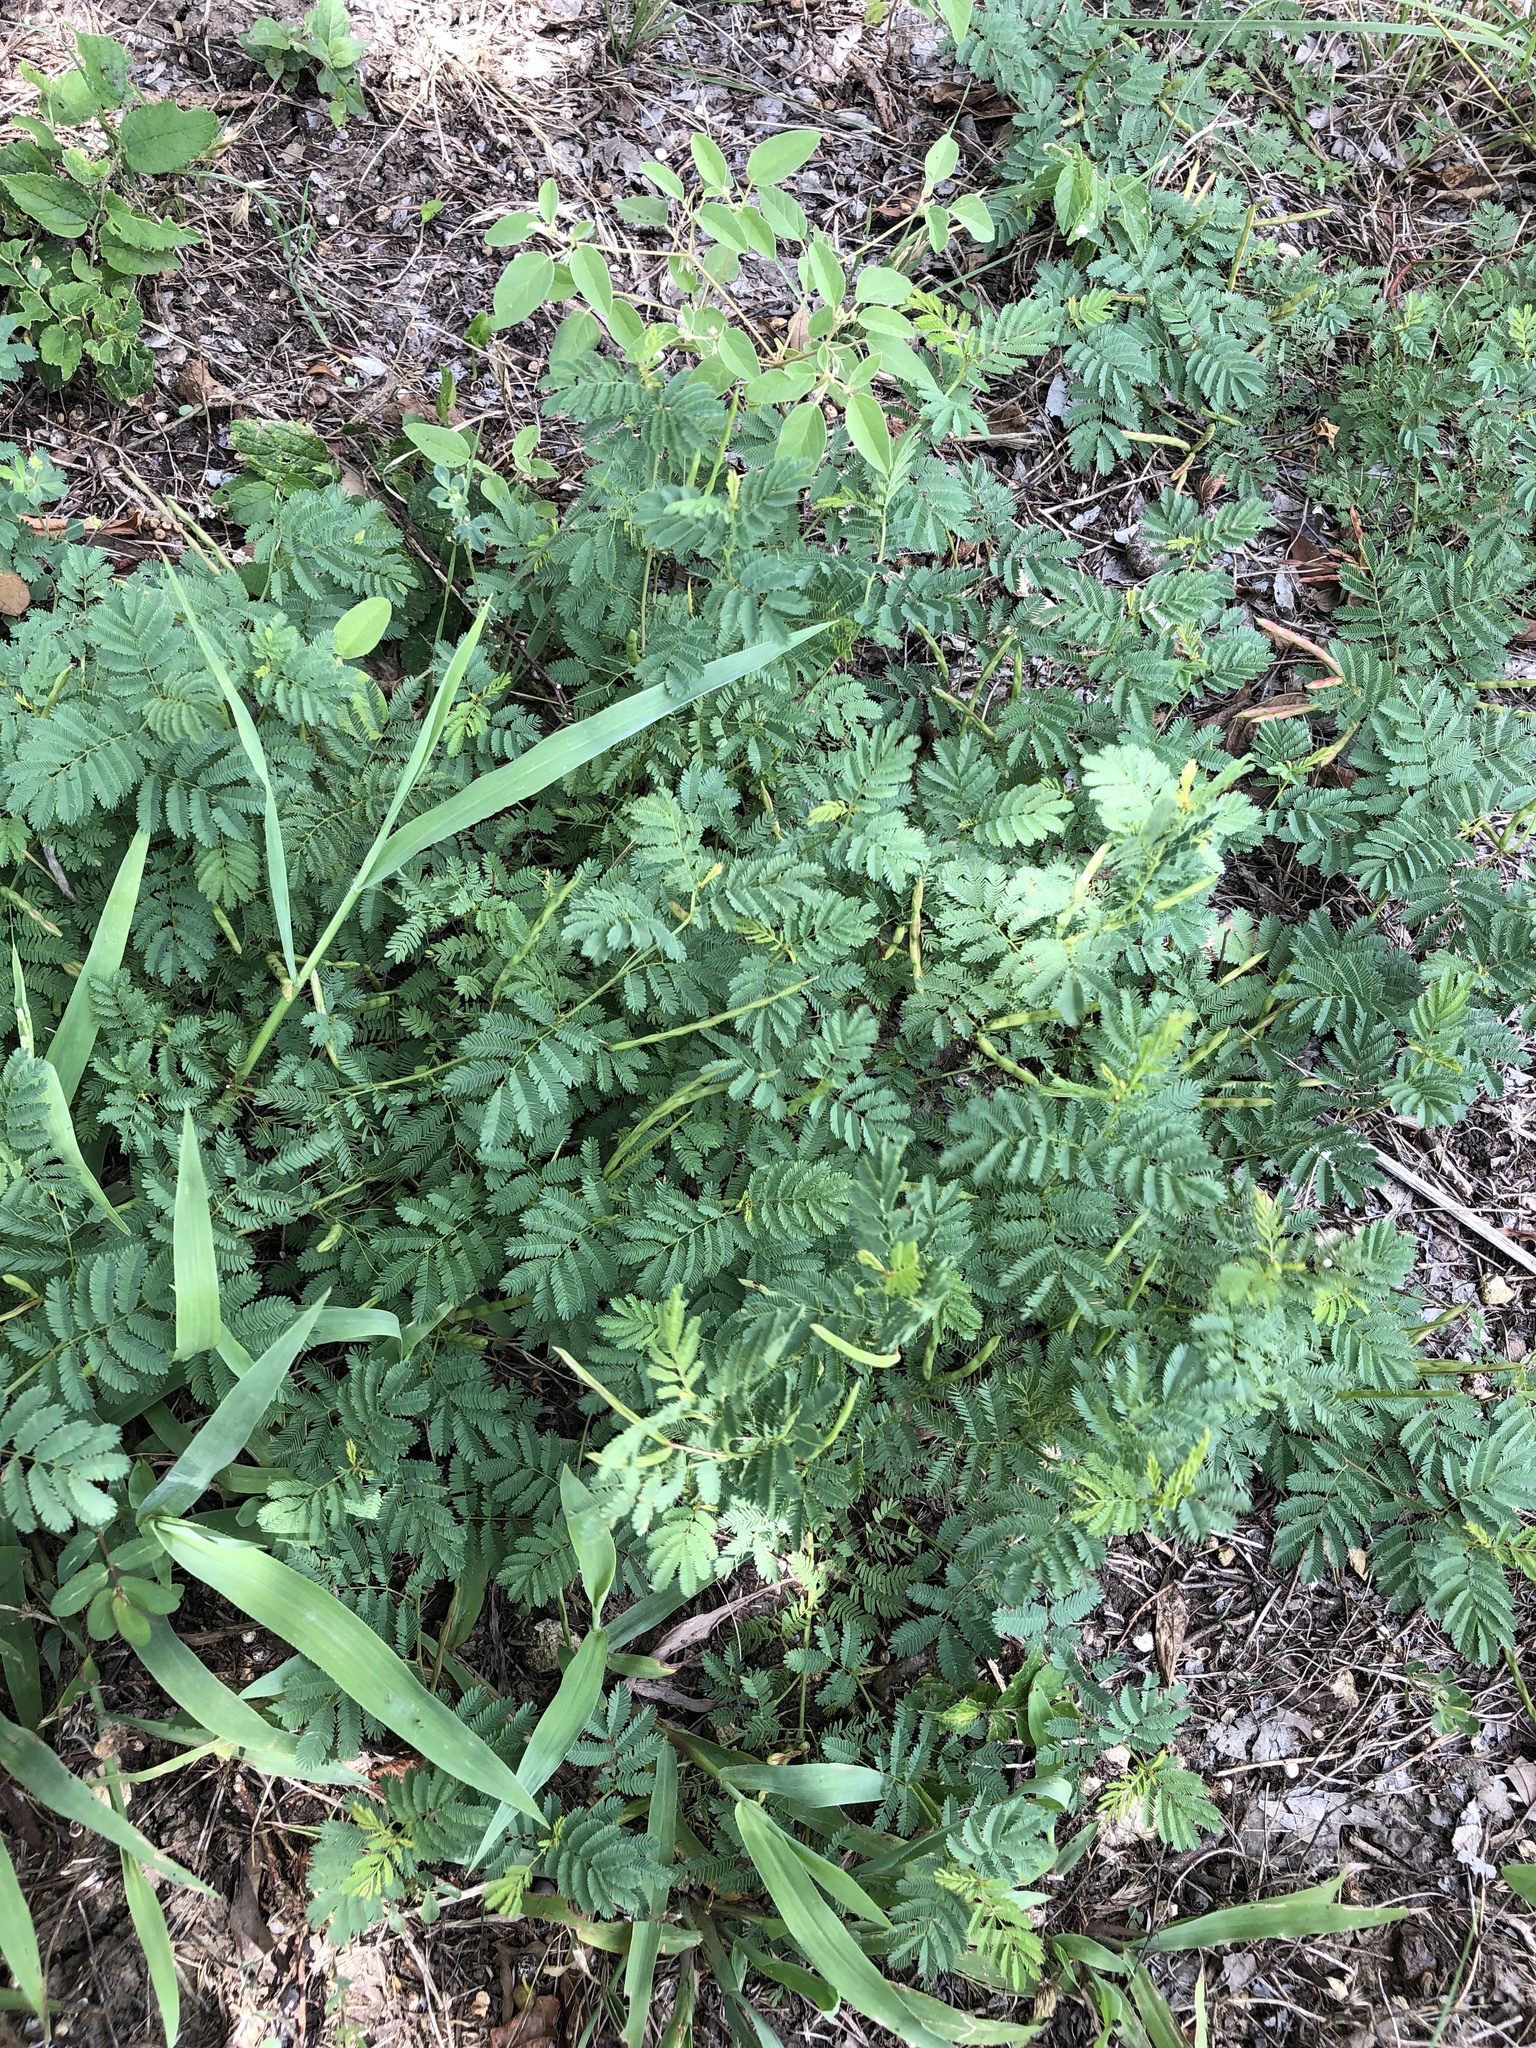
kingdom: Plantae
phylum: Tracheophyta
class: Magnoliopsida
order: Fabales
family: Fabaceae
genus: Desmanthus
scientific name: Desmanthus leptolobus
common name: Prairie-mimosa
